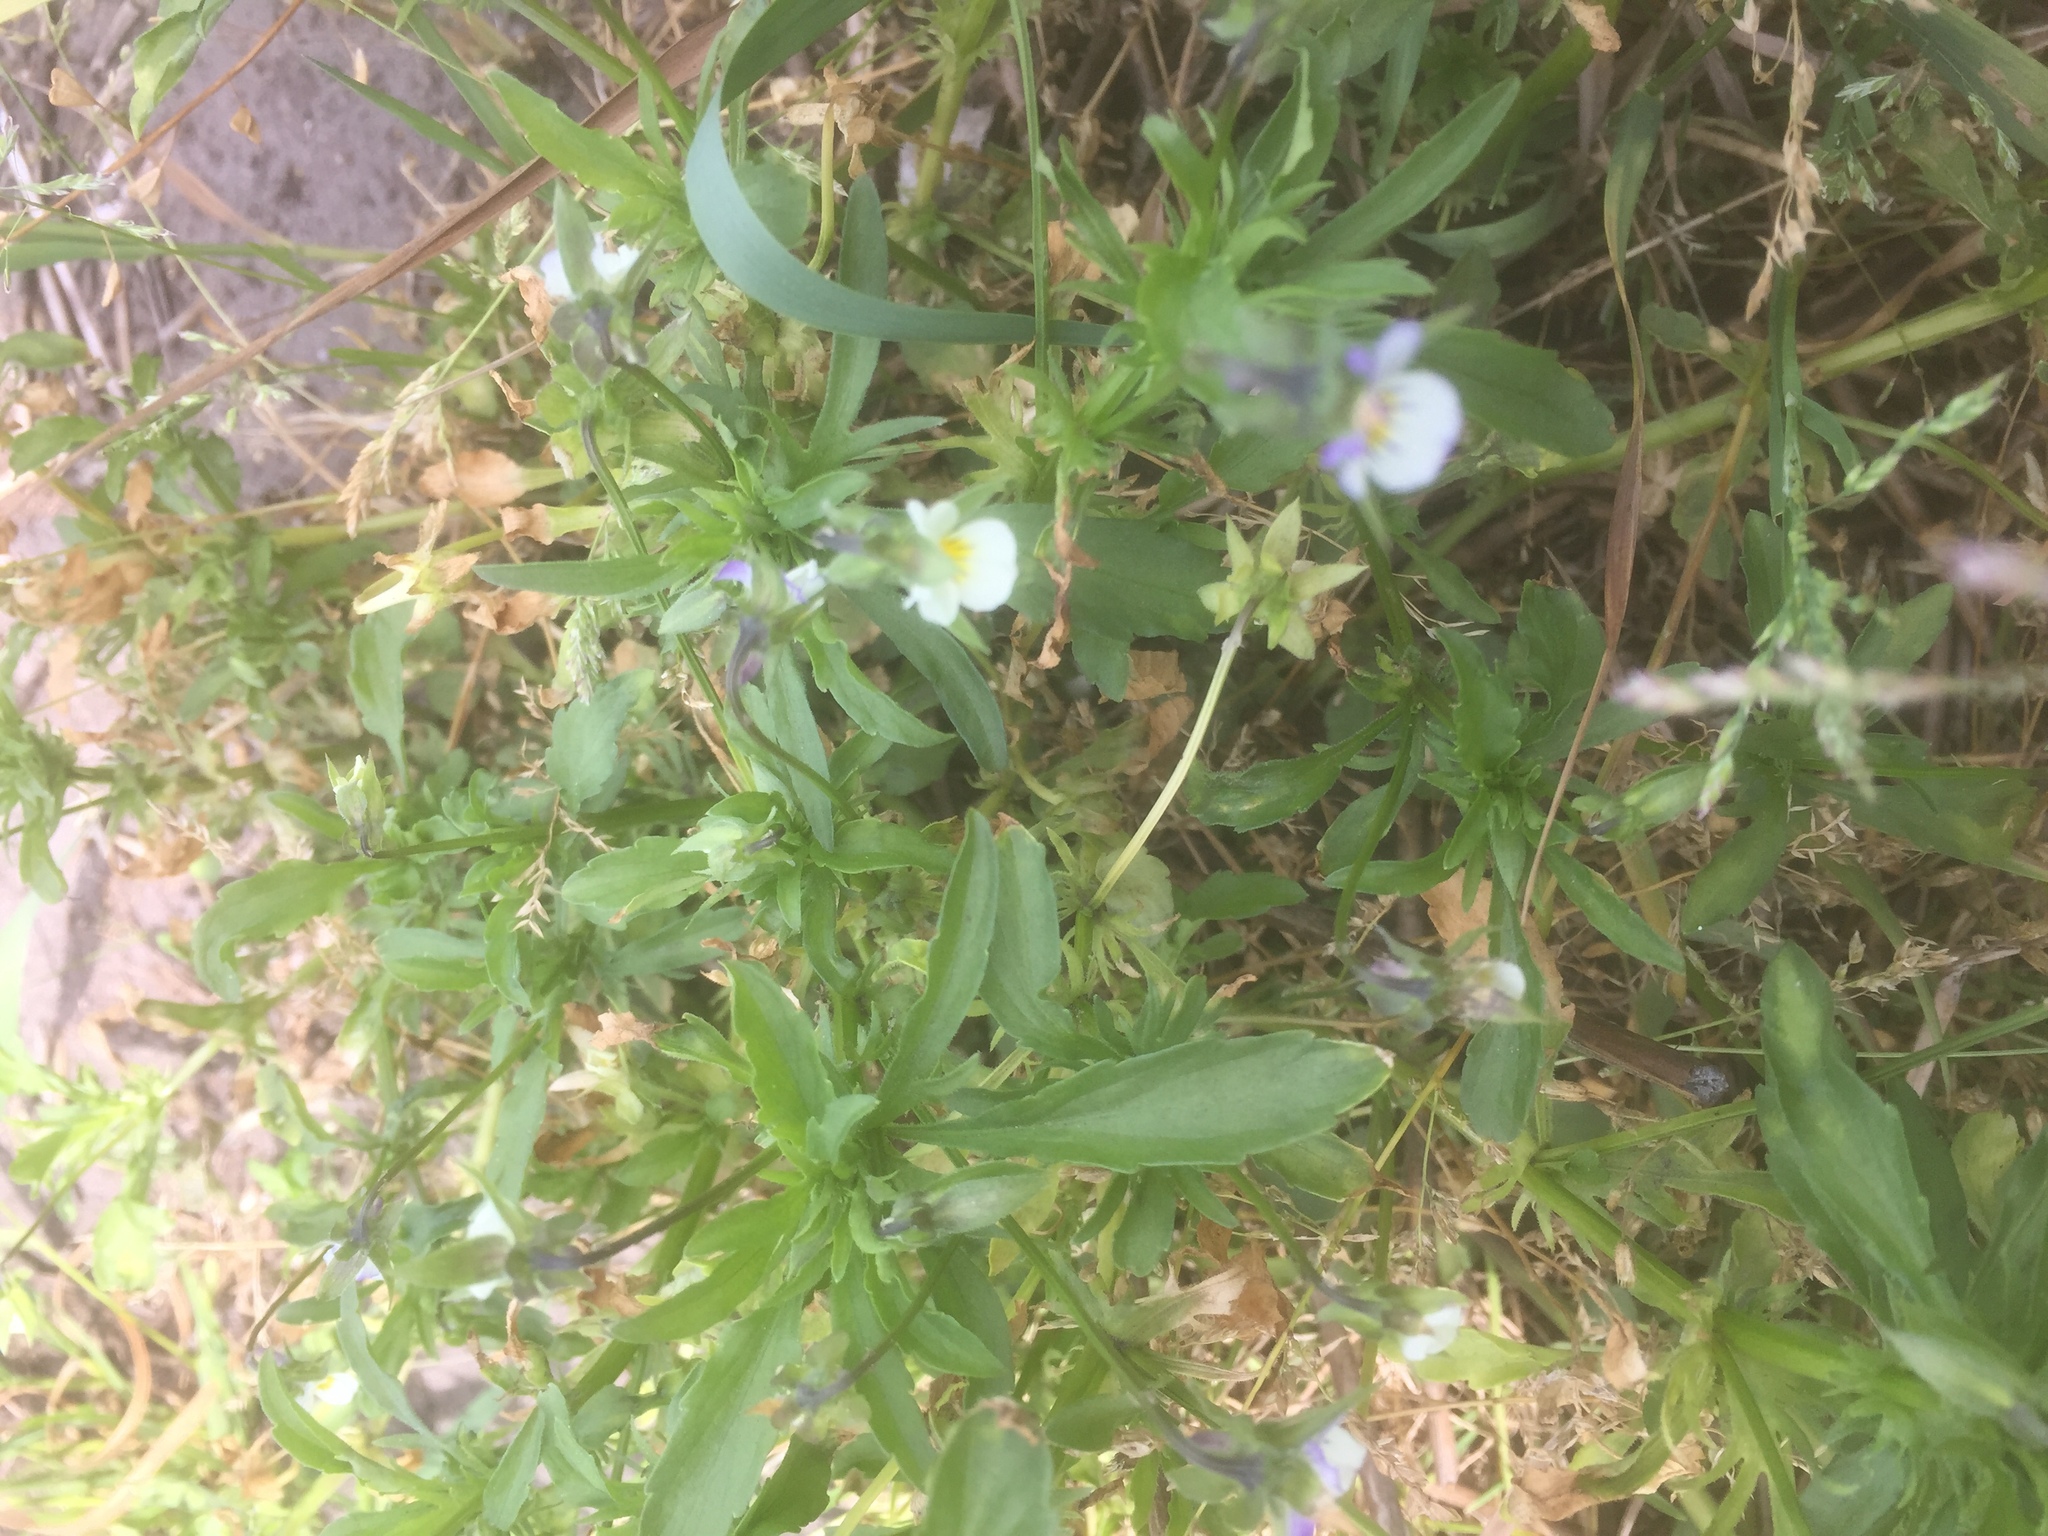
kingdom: Plantae
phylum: Tracheophyta
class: Magnoliopsida
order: Malpighiales
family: Violaceae
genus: Viola
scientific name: Viola arvensis
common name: Field pansy
